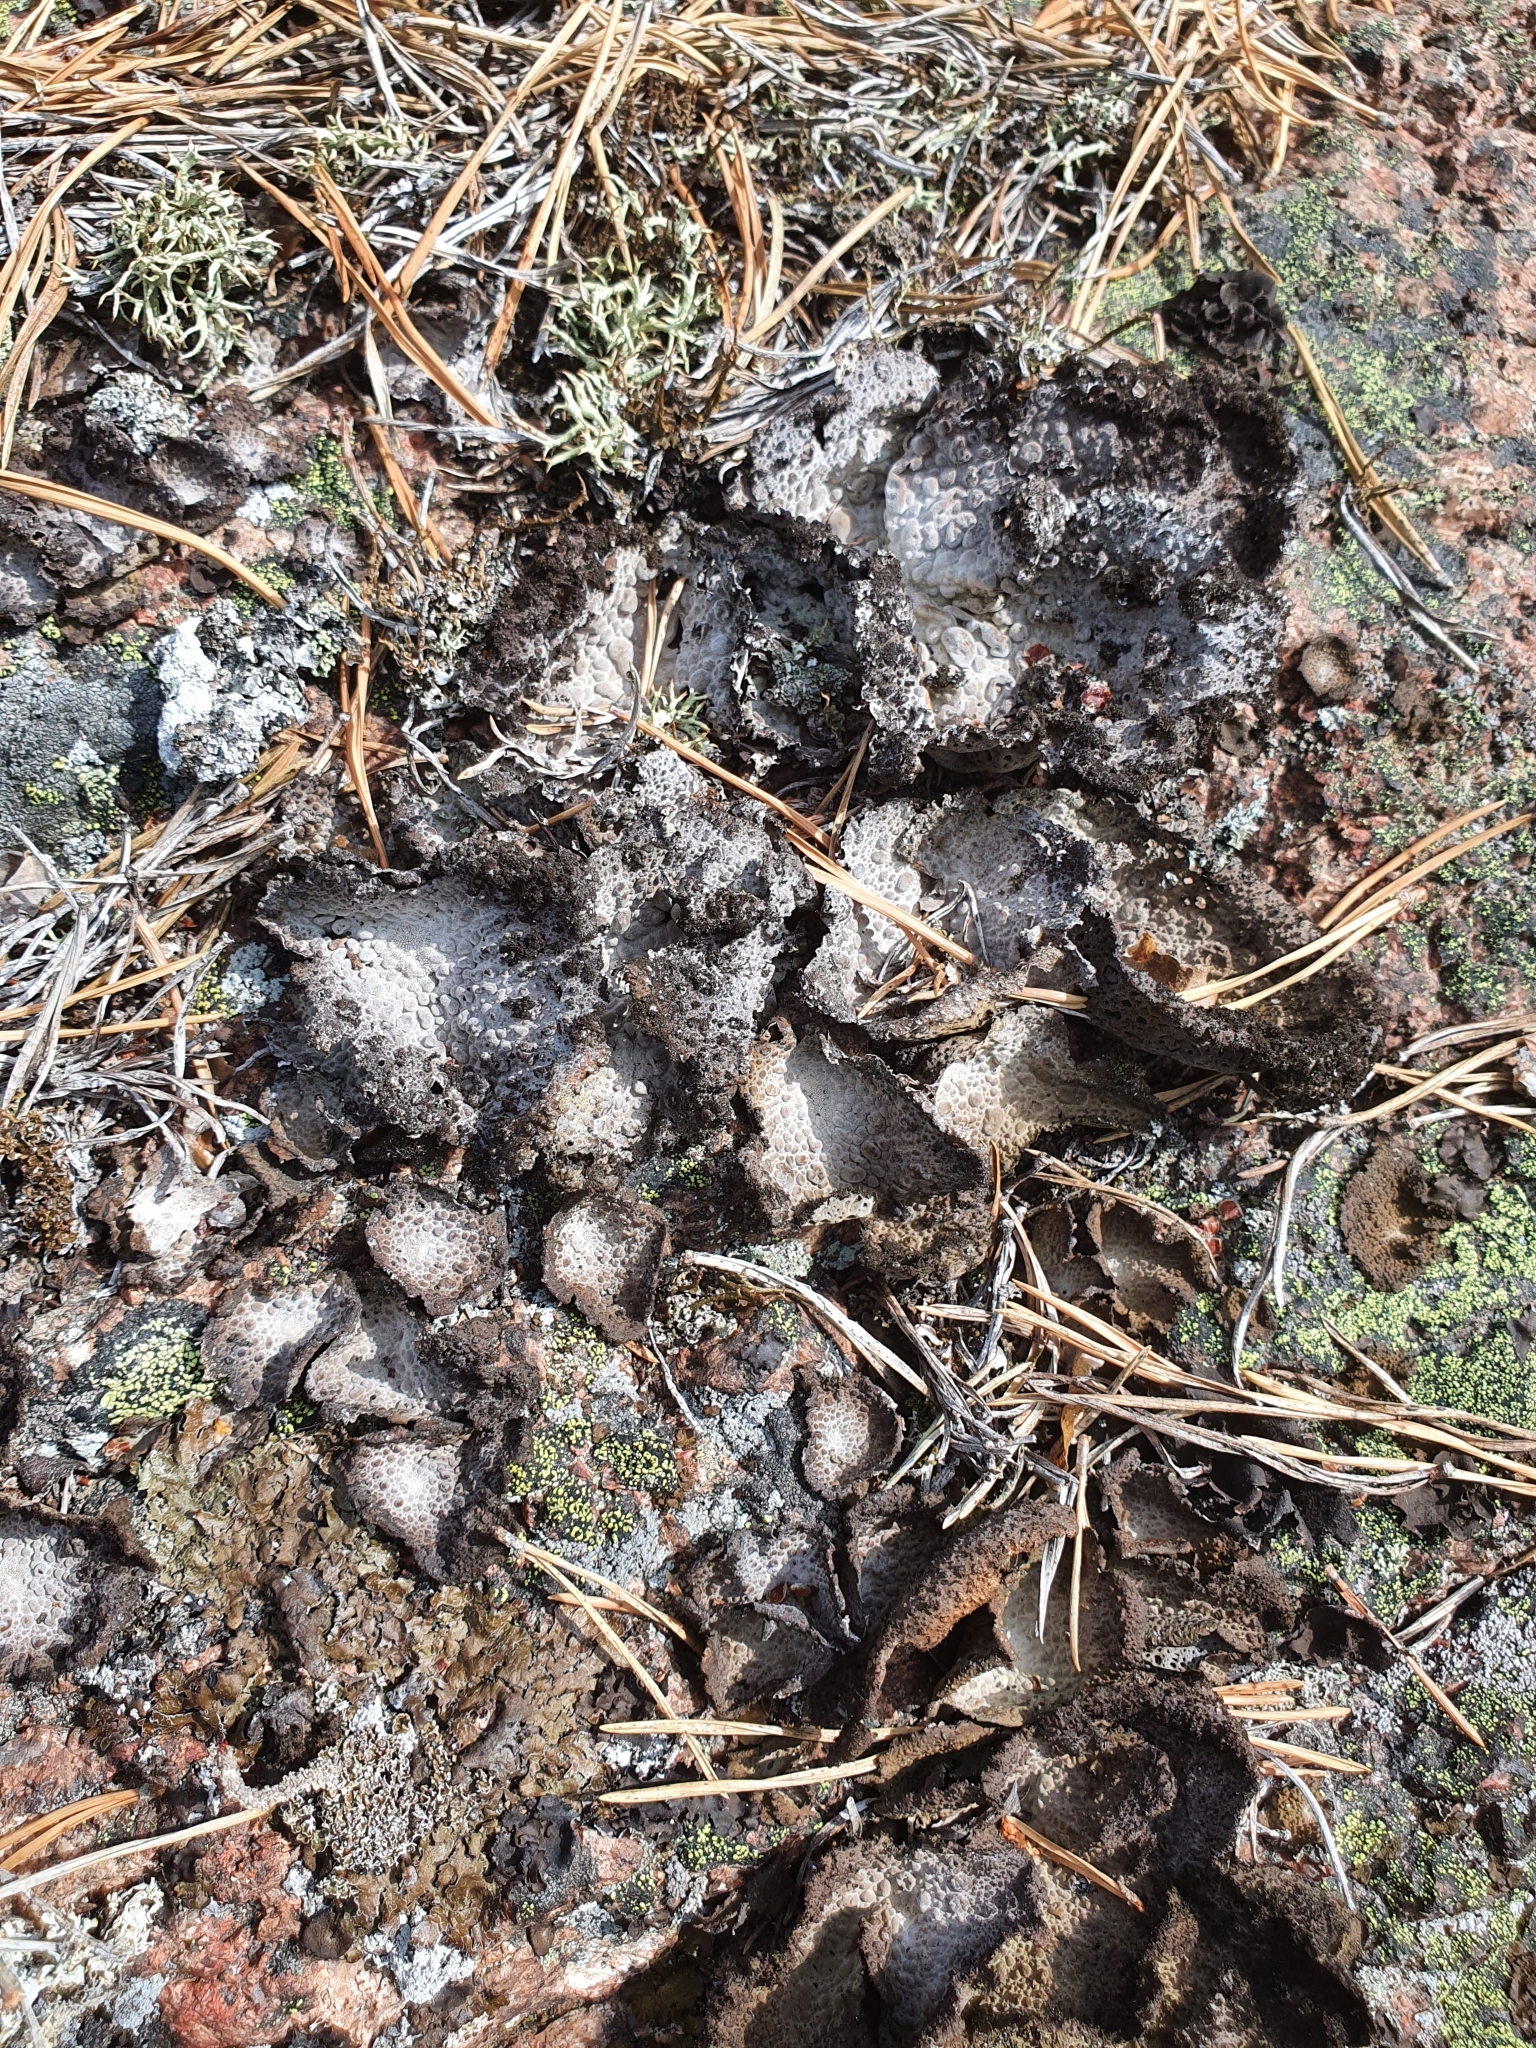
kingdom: Fungi
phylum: Ascomycota
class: Lecanoromycetes
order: Umbilicariales
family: Umbilicariaceae
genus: Lasallia
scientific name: Lasallia pustulata
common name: Blistered toadskin lichen
